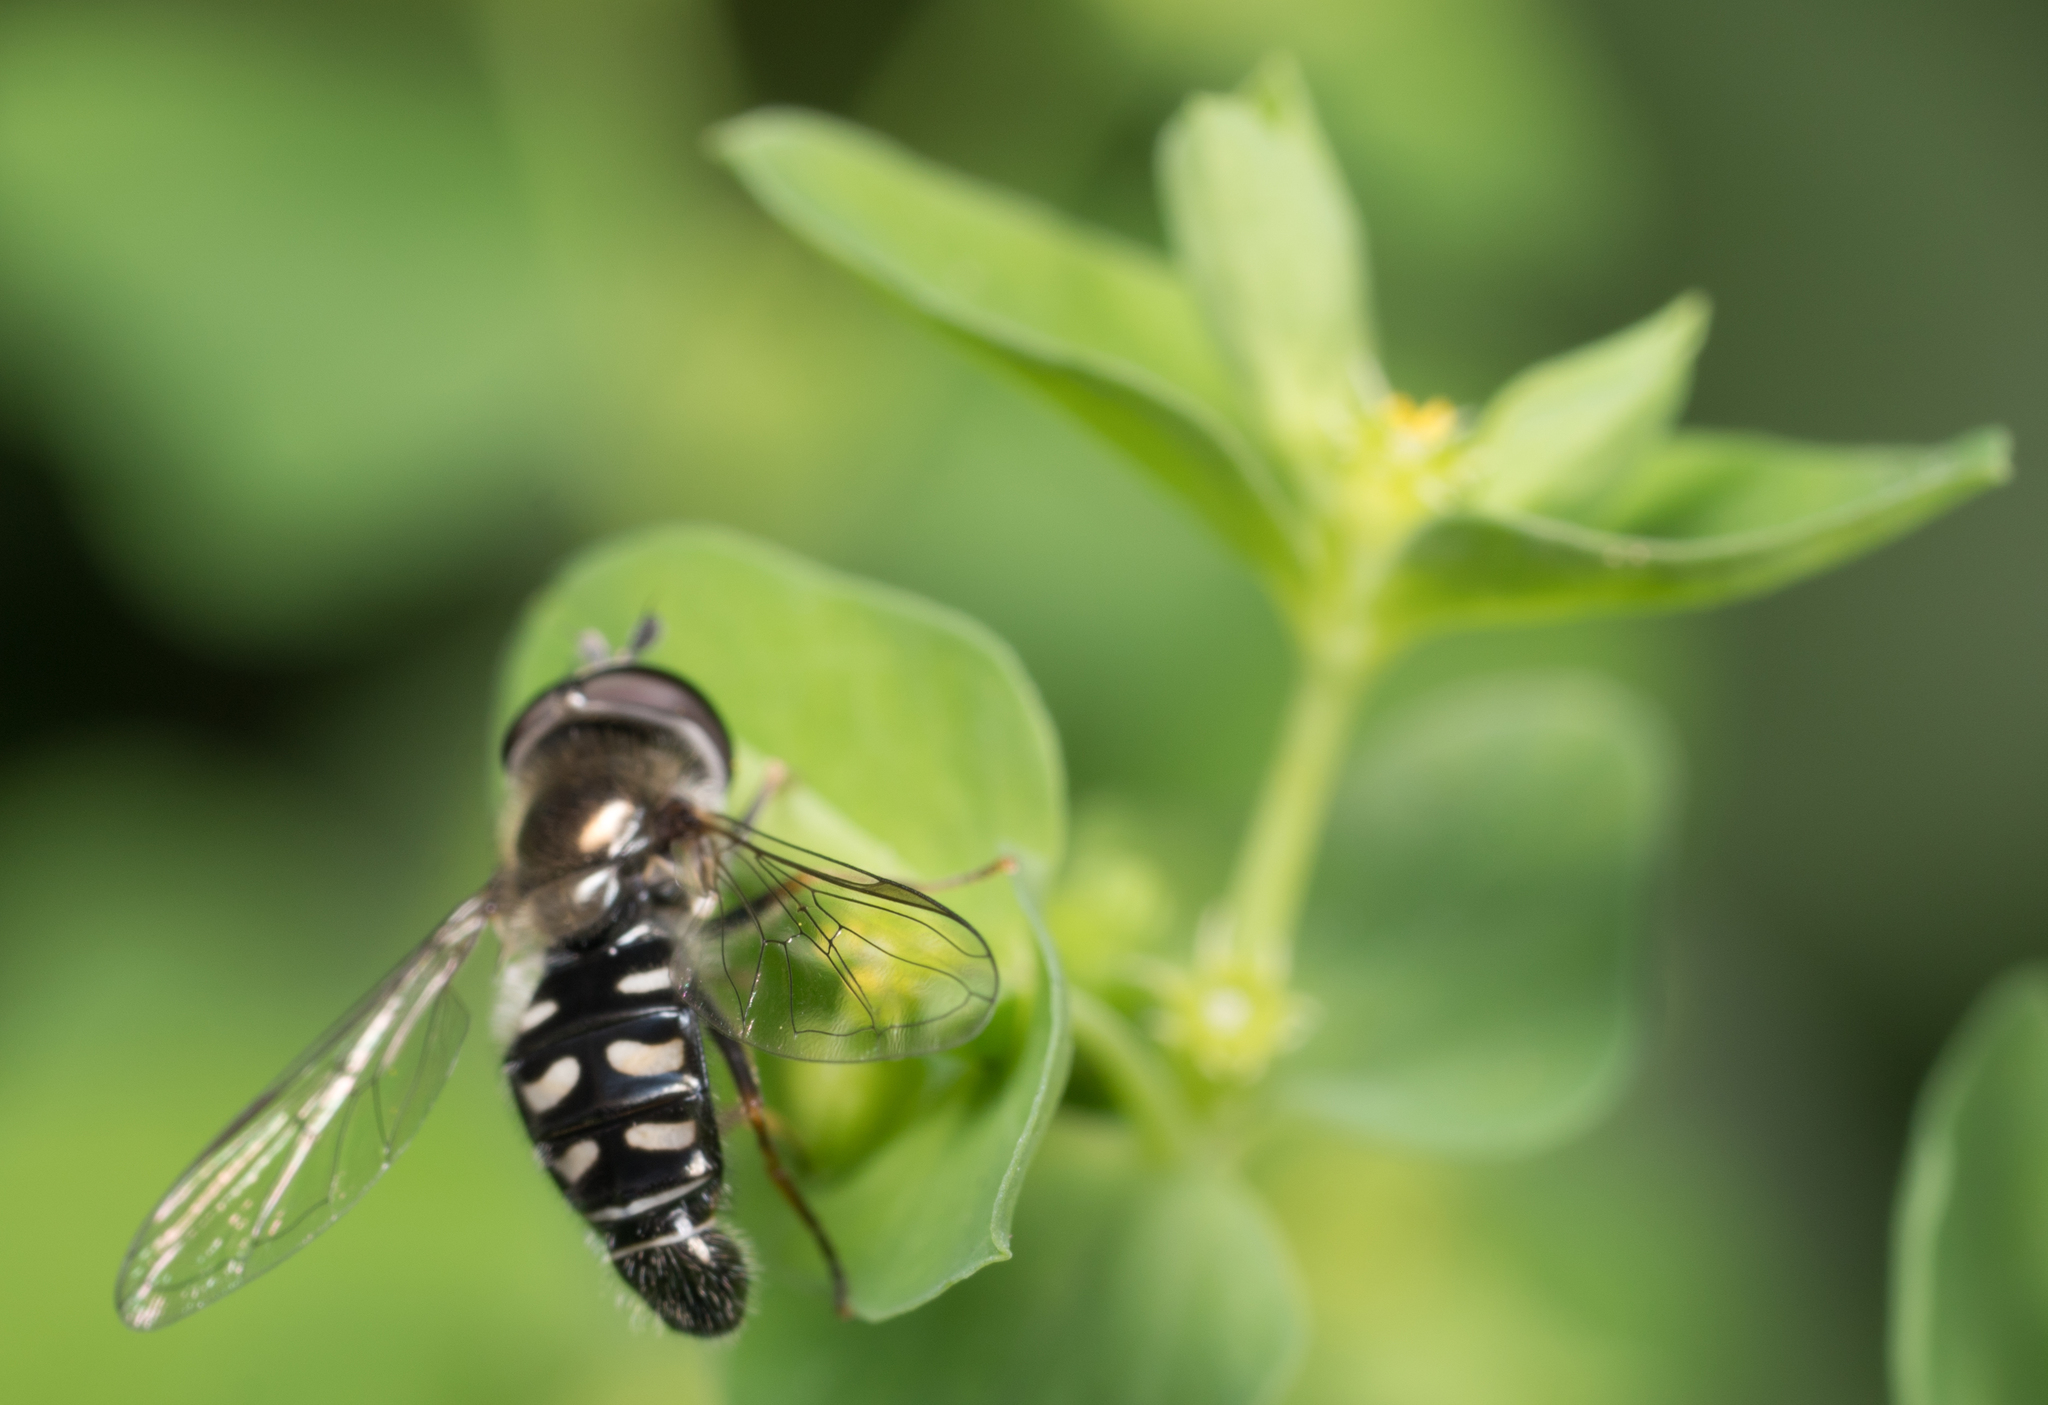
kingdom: Animalia
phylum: Arthropoda
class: Insecta
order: Diptera
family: Syrphidae
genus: Eupeodes
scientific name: Eupeodes volucris
